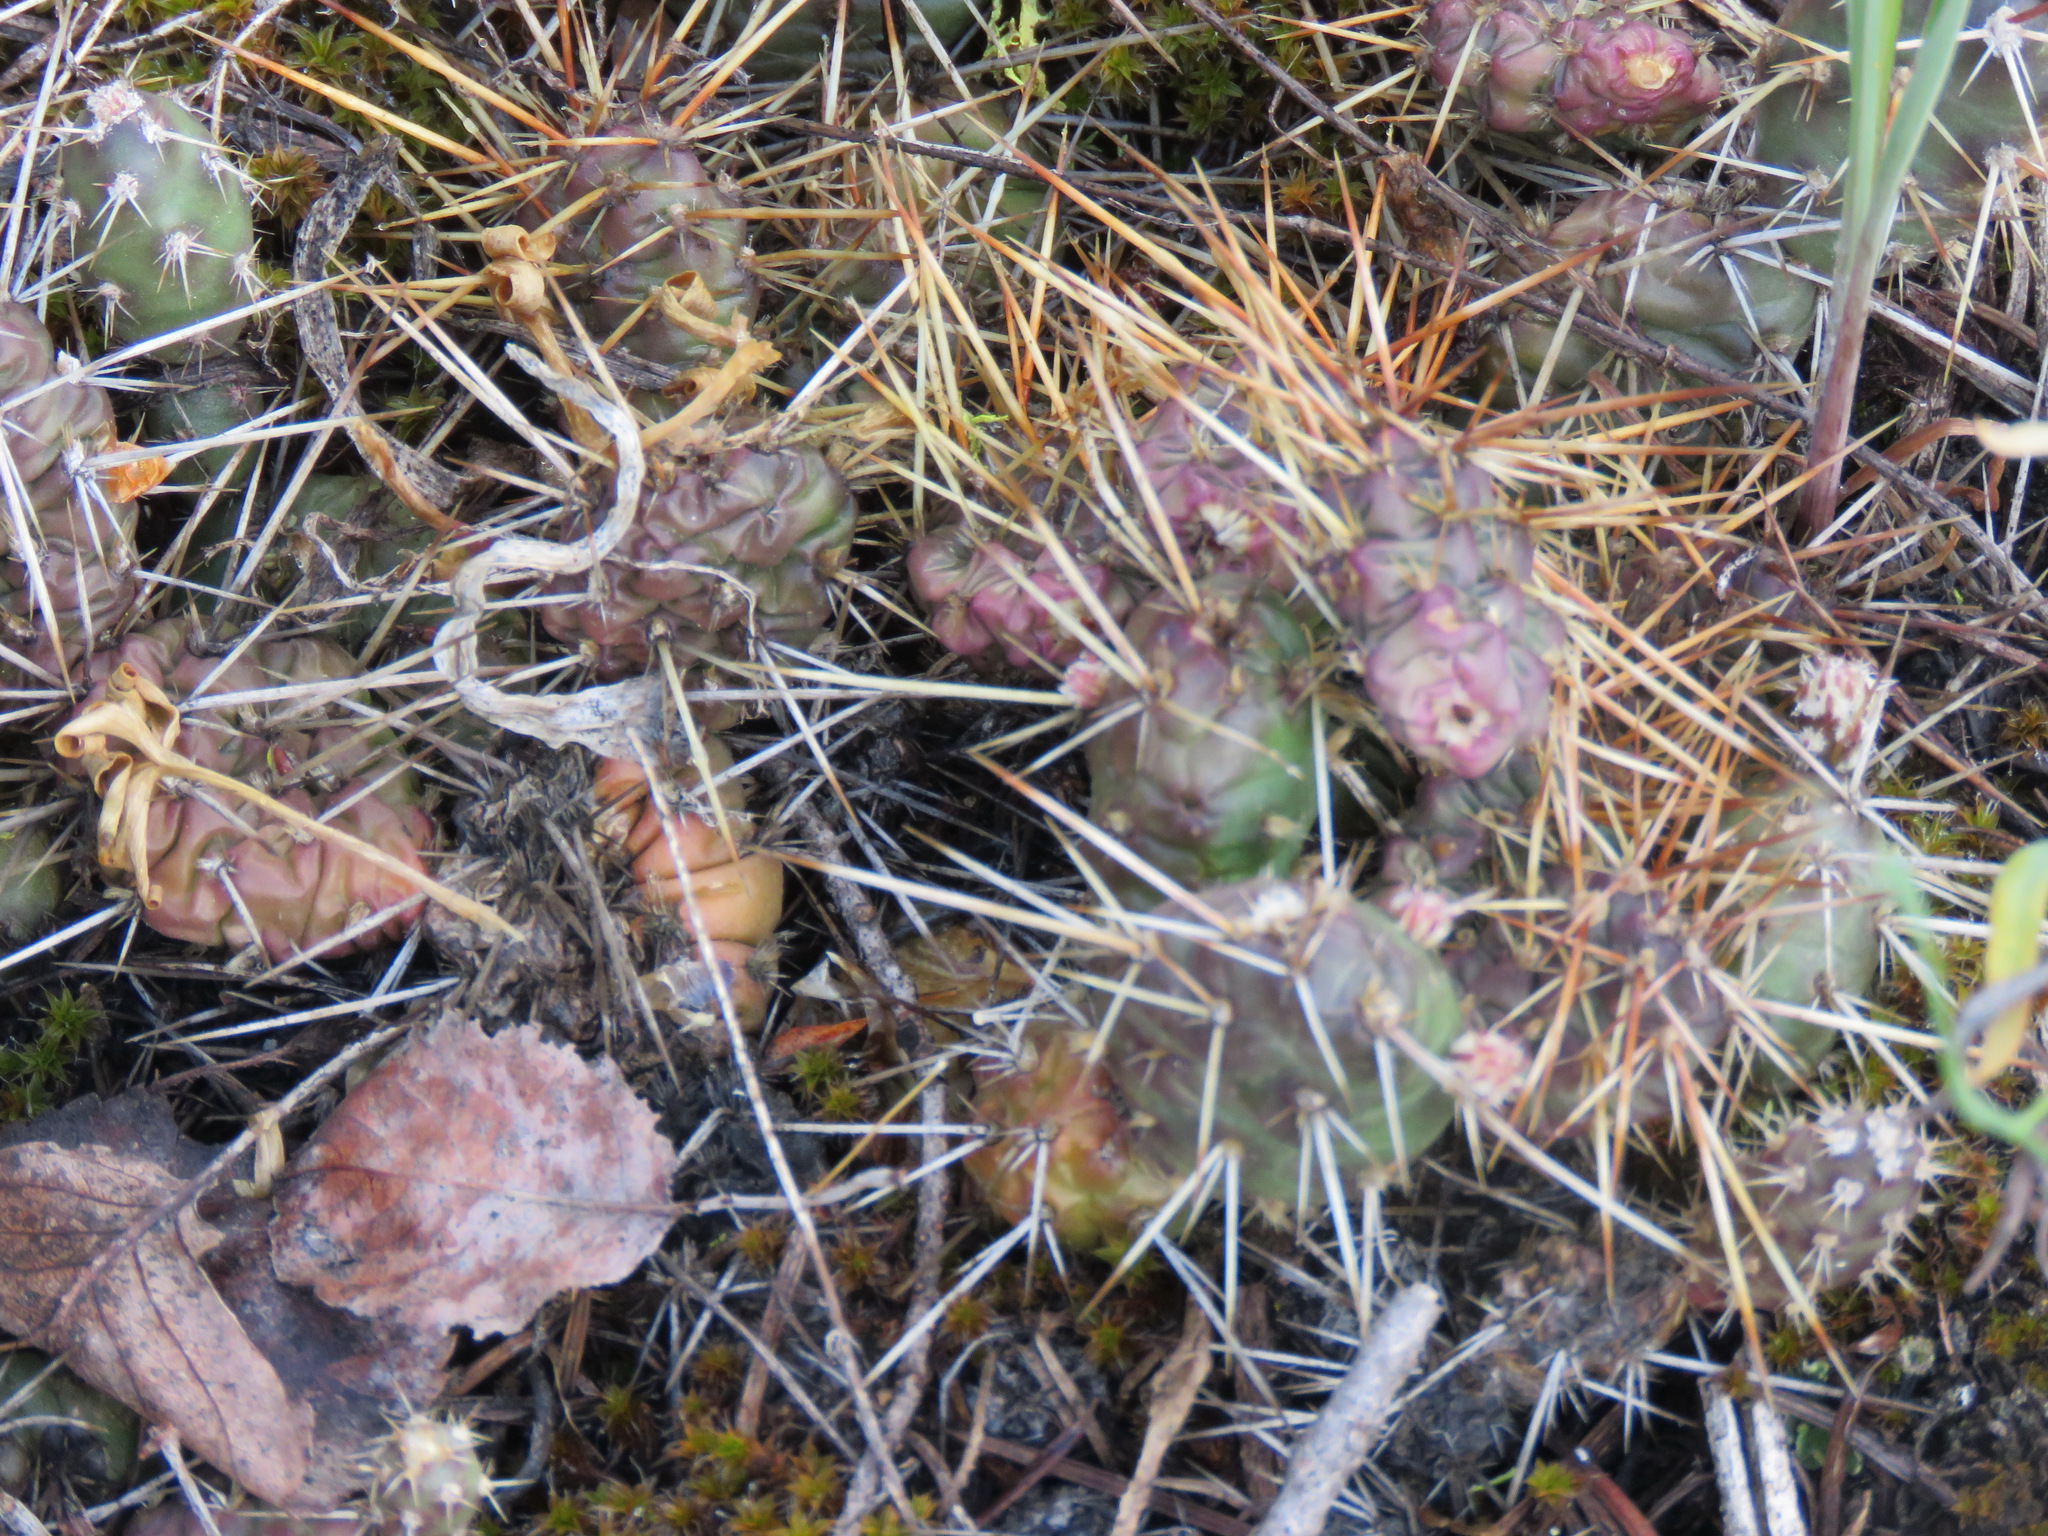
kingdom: Plantae
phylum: Tracheophyta
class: Magnoliopsida
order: Caryophyllales
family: Cactaceae
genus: Opuntia
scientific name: Opuntia fragilis
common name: Brittle cactus
